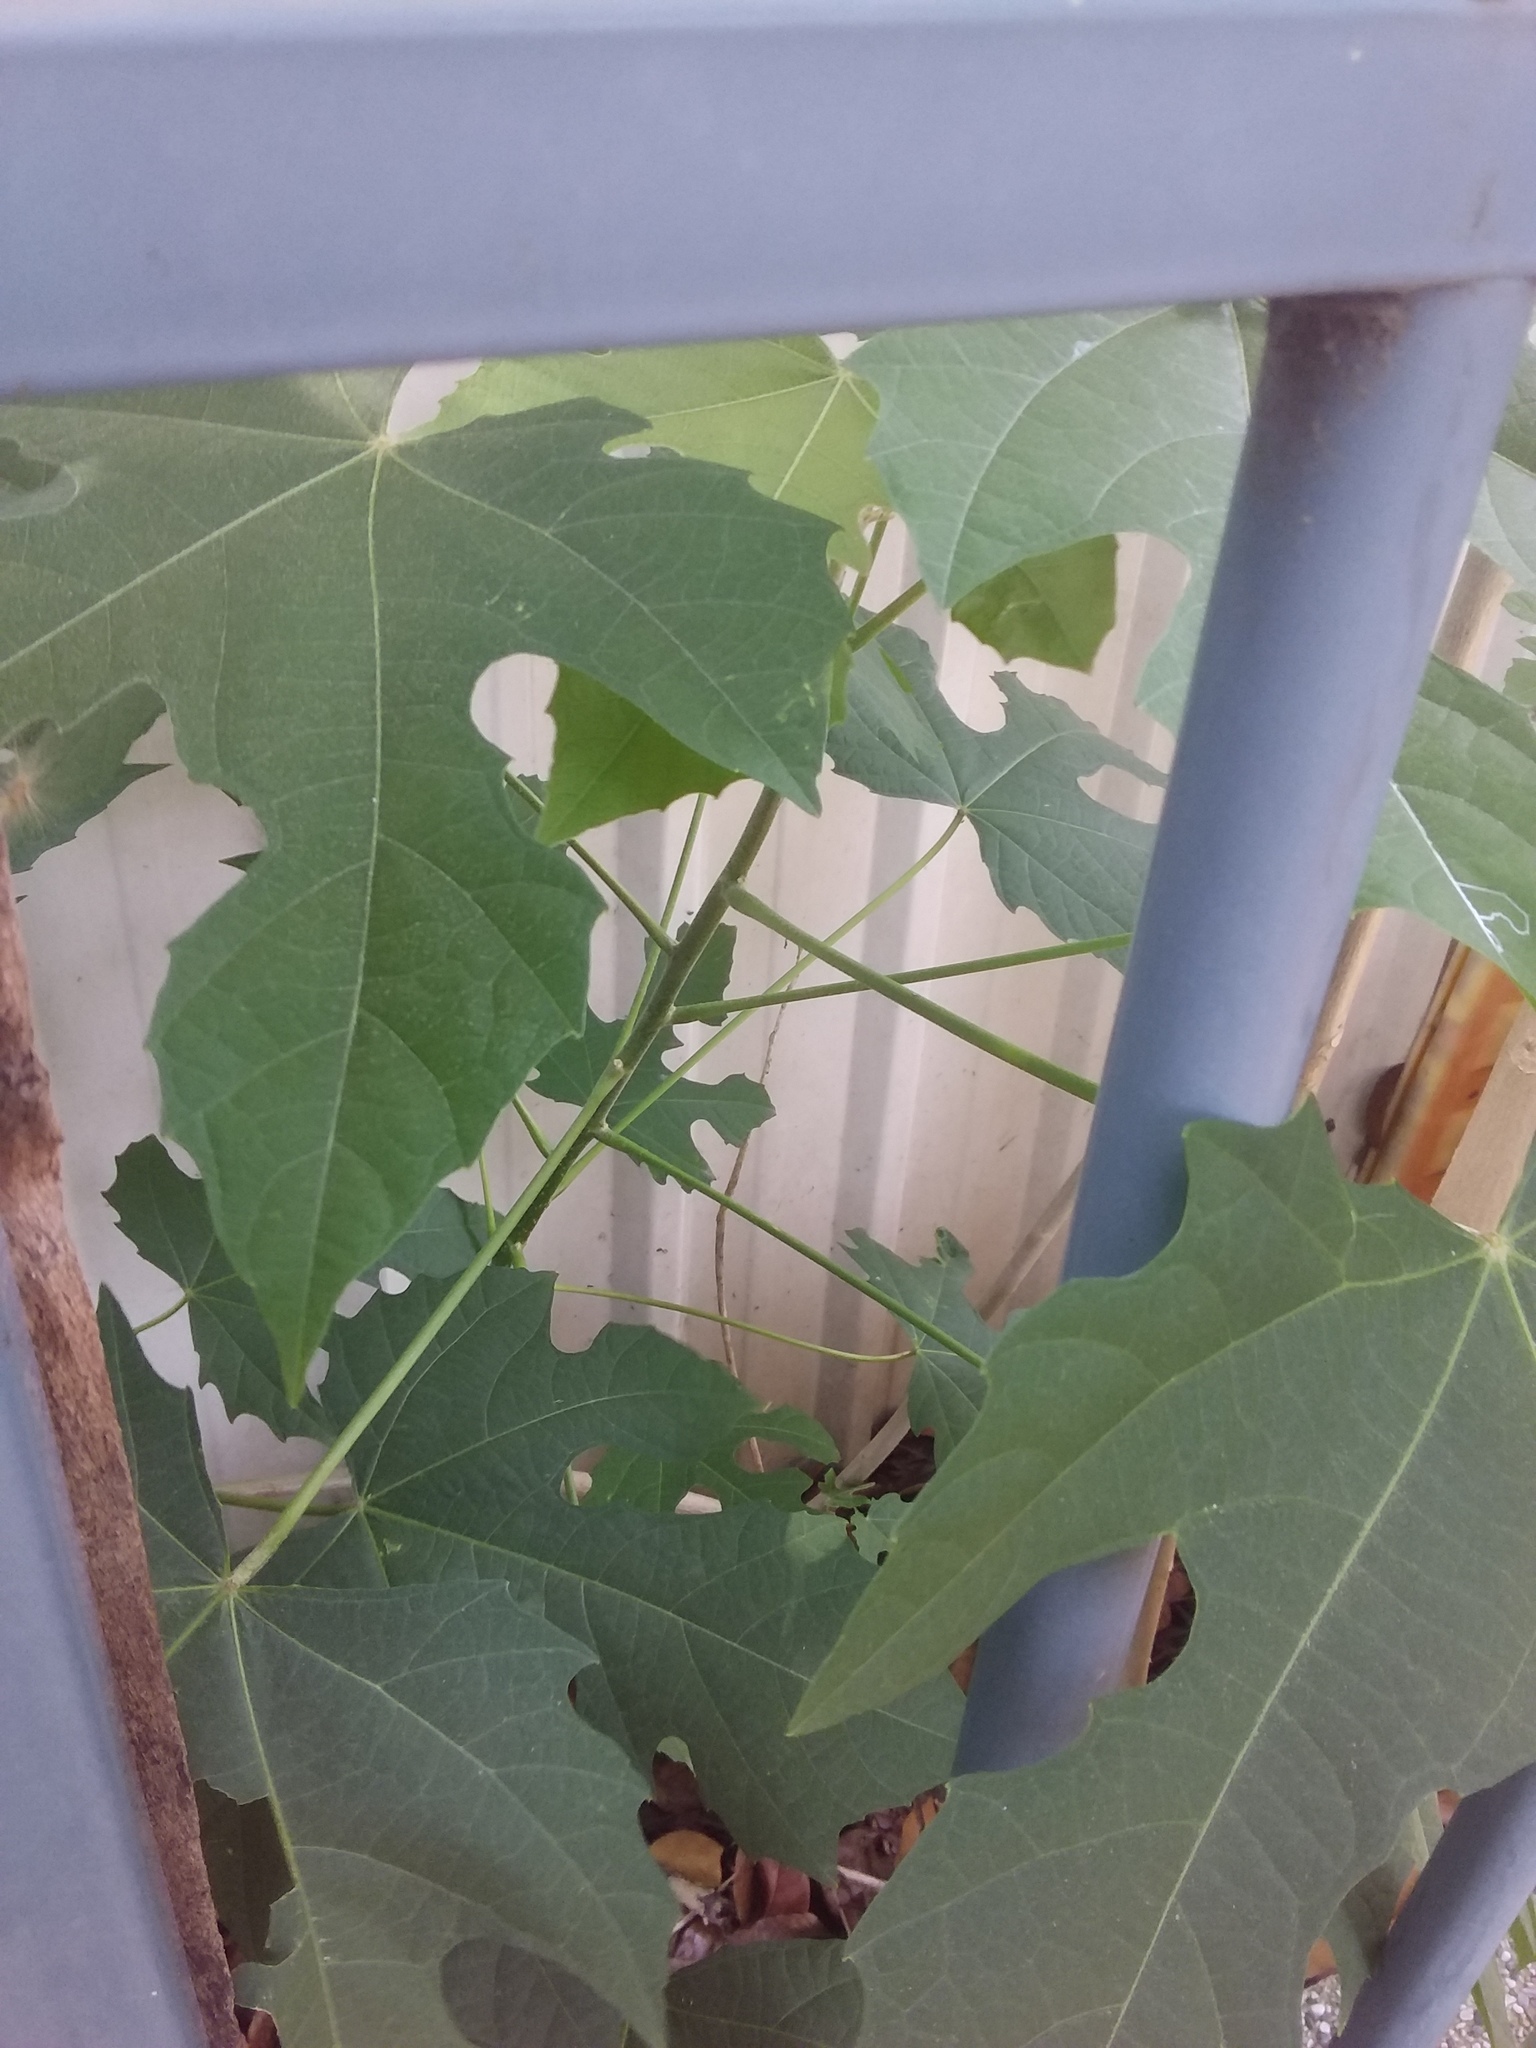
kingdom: Plantae
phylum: Tracheophyta
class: Magnoliopsida
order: Malpighiales
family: Euphorbiaceae
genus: Melanolepis
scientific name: Melanolepis multiglandulosa
